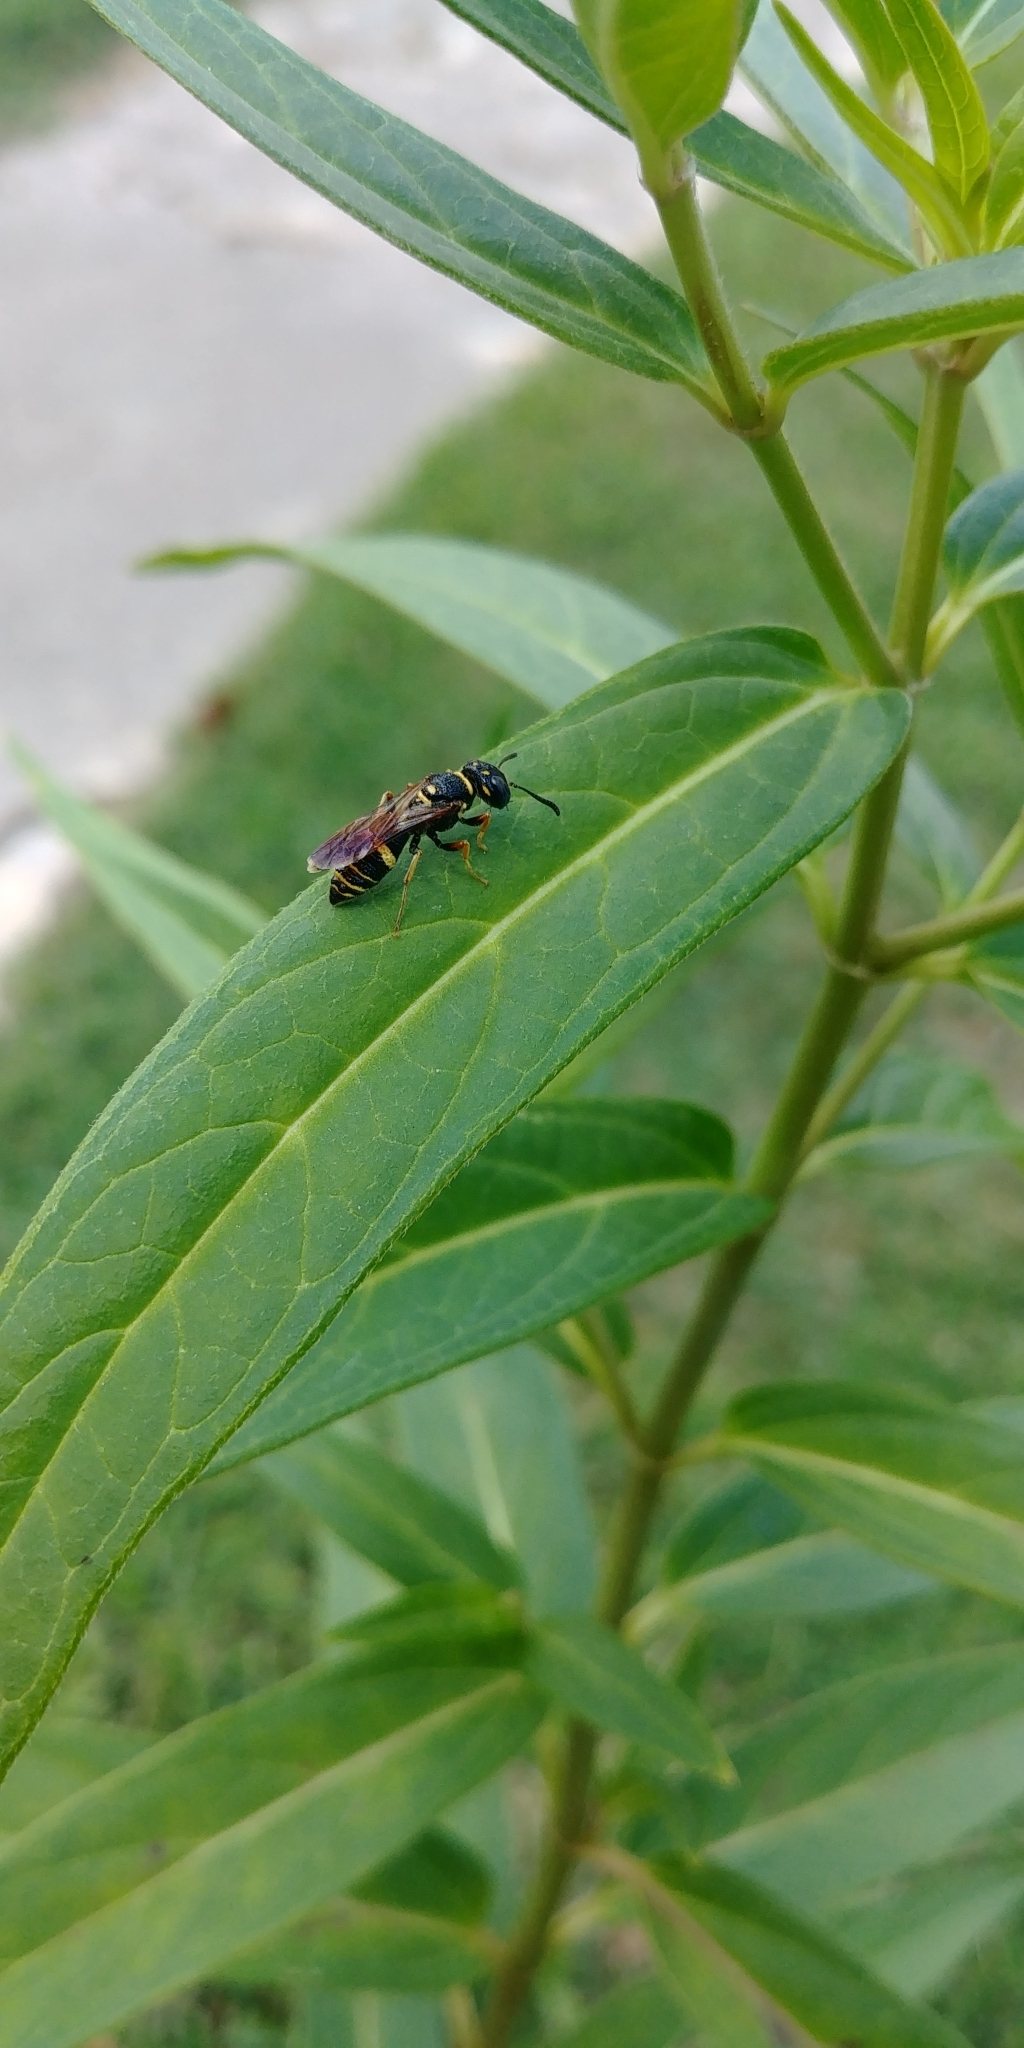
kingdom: Animalia
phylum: Arthropoda
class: Insecta
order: Hymenoptera
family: Crabronidae
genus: Philanthus
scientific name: Philanthus gibbosus
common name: Humped beewolf
